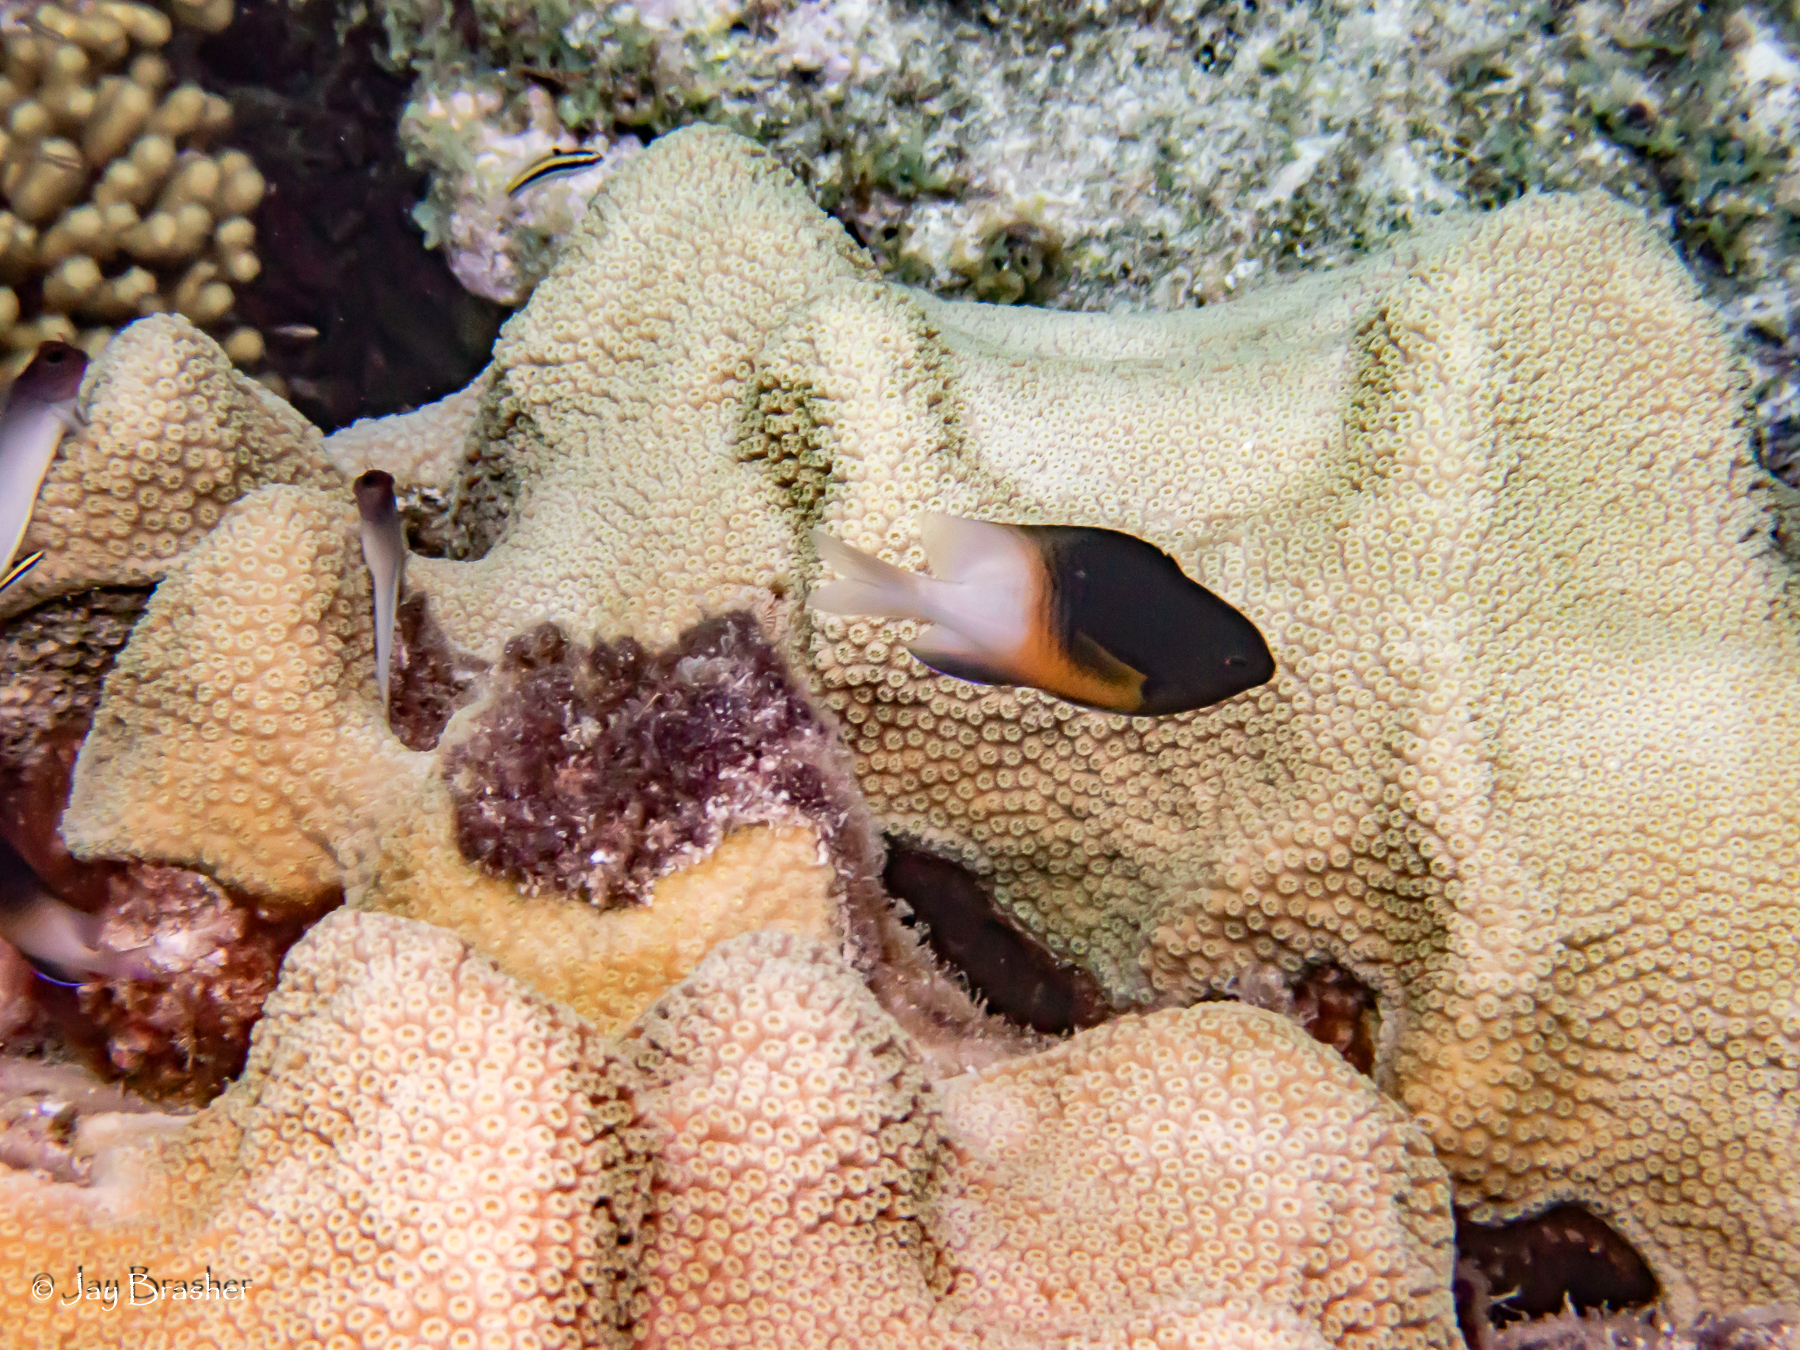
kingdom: Animalia
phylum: Chordata
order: Perciformes
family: Pomacentridae
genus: Stegastes
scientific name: Stegastes partitus
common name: Bicolor damselfish
